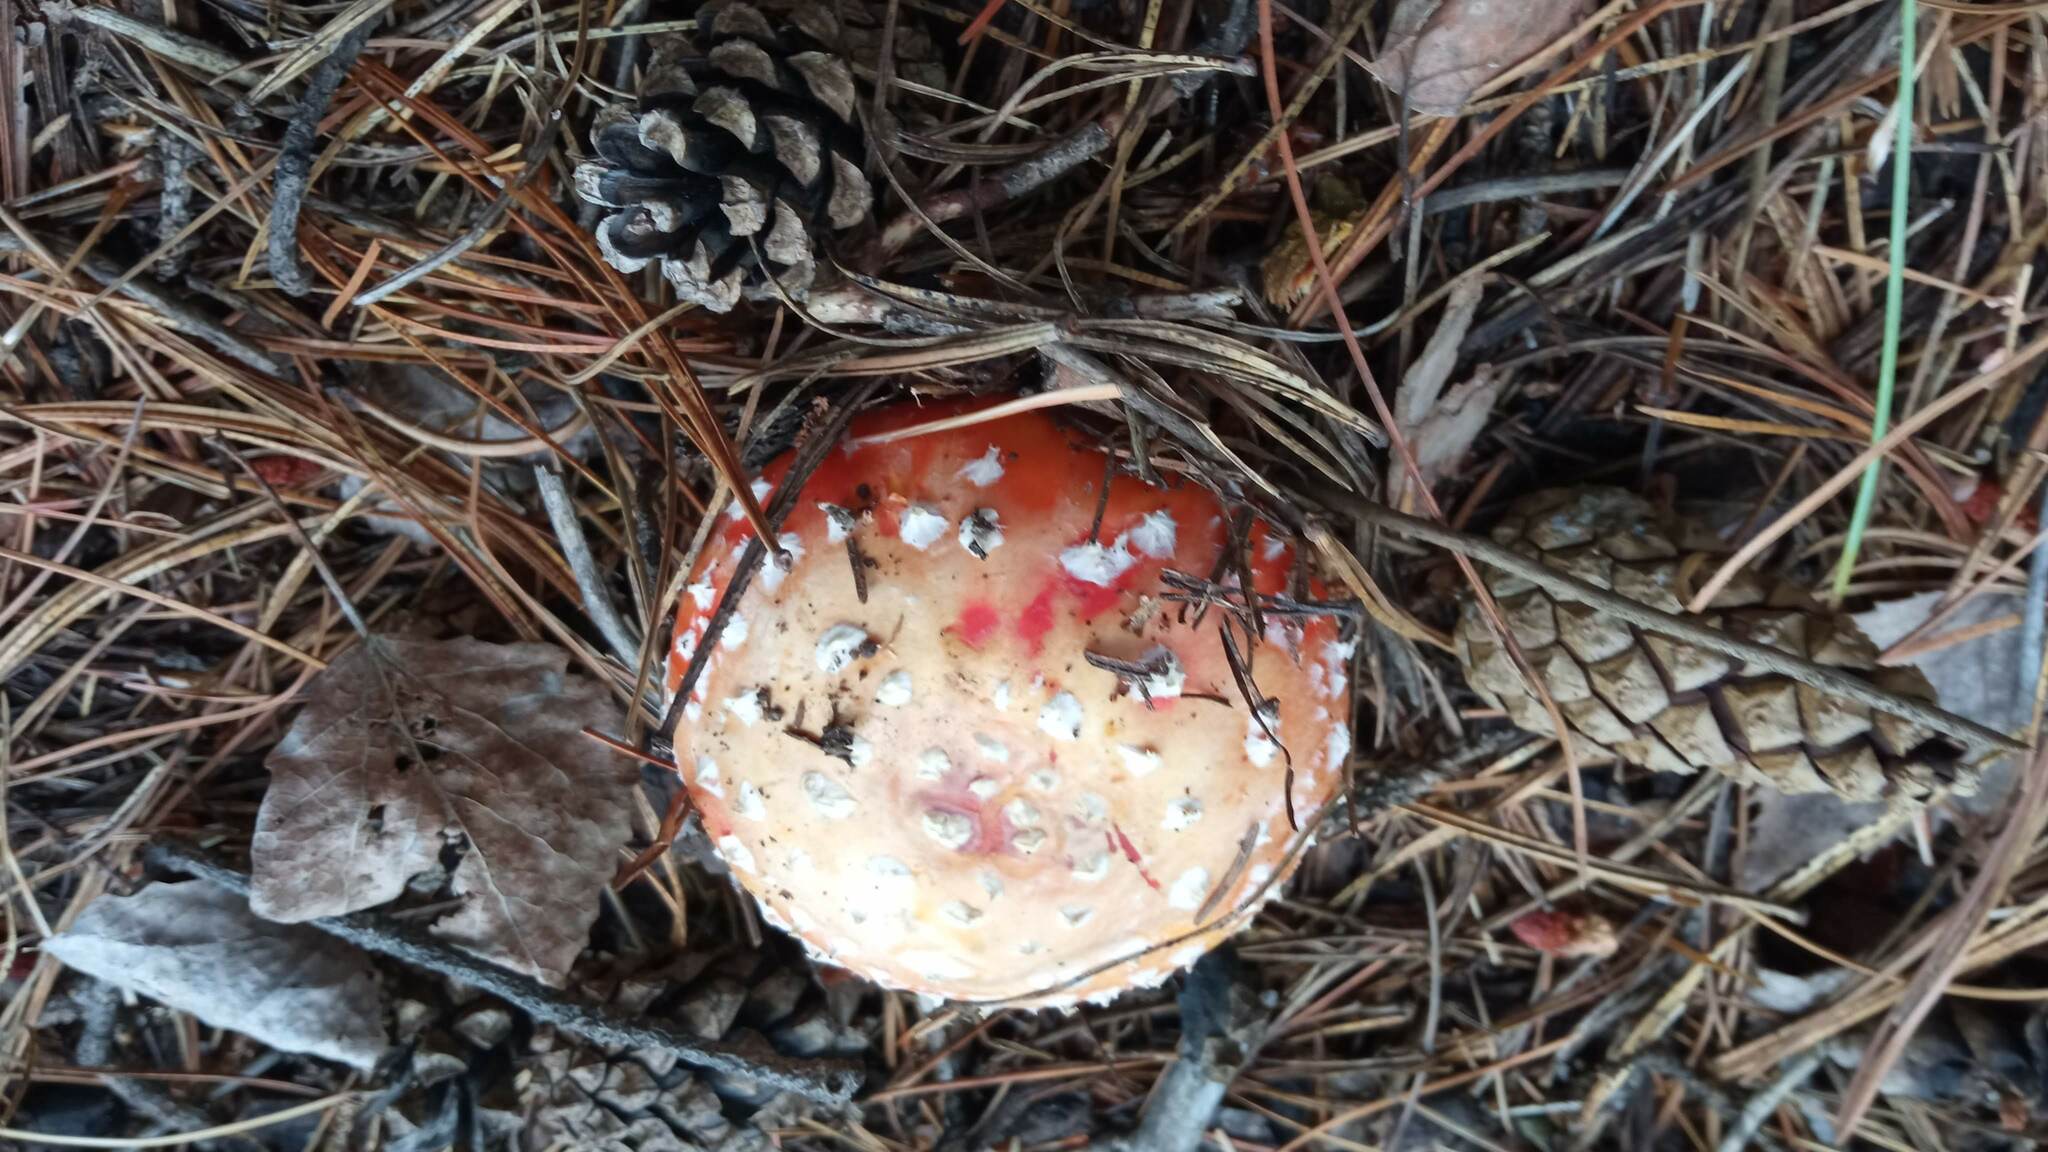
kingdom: Fungi
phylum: Basidiomycota
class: Agaricomycetes
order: Agaricales
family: Amanitaceae
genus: Amanita
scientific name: Amanita muscaria
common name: Fly agaric
